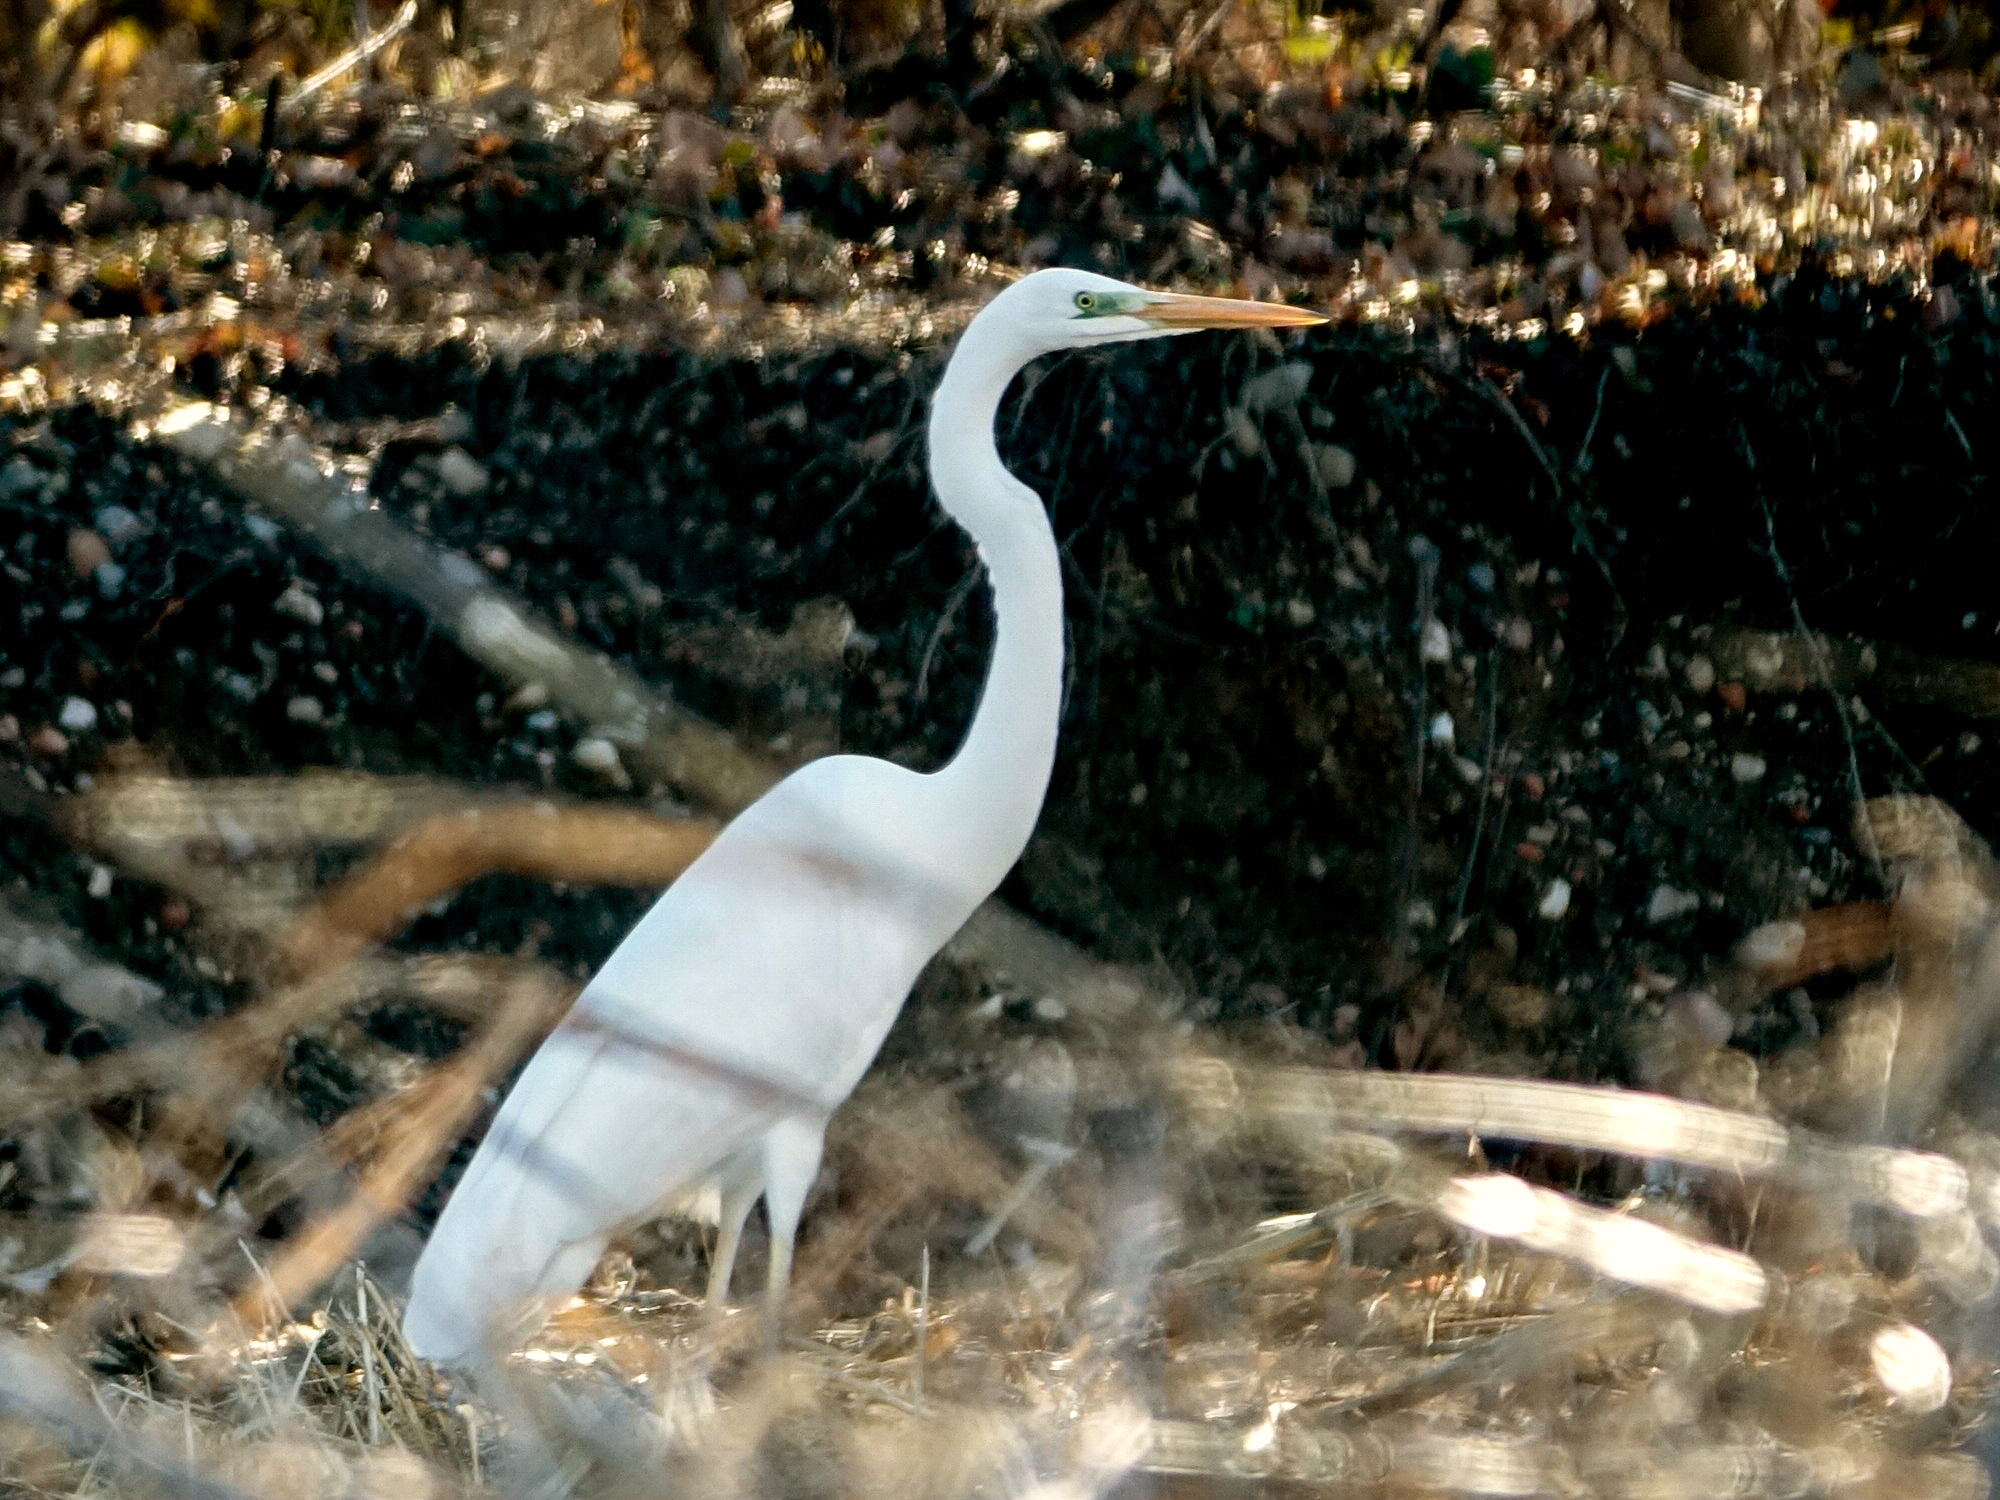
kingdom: Animalia
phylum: Chordata
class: Aves
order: Pelecaniformes
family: Ardeidae
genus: Ardea
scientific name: Ardea alba
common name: Great egret
